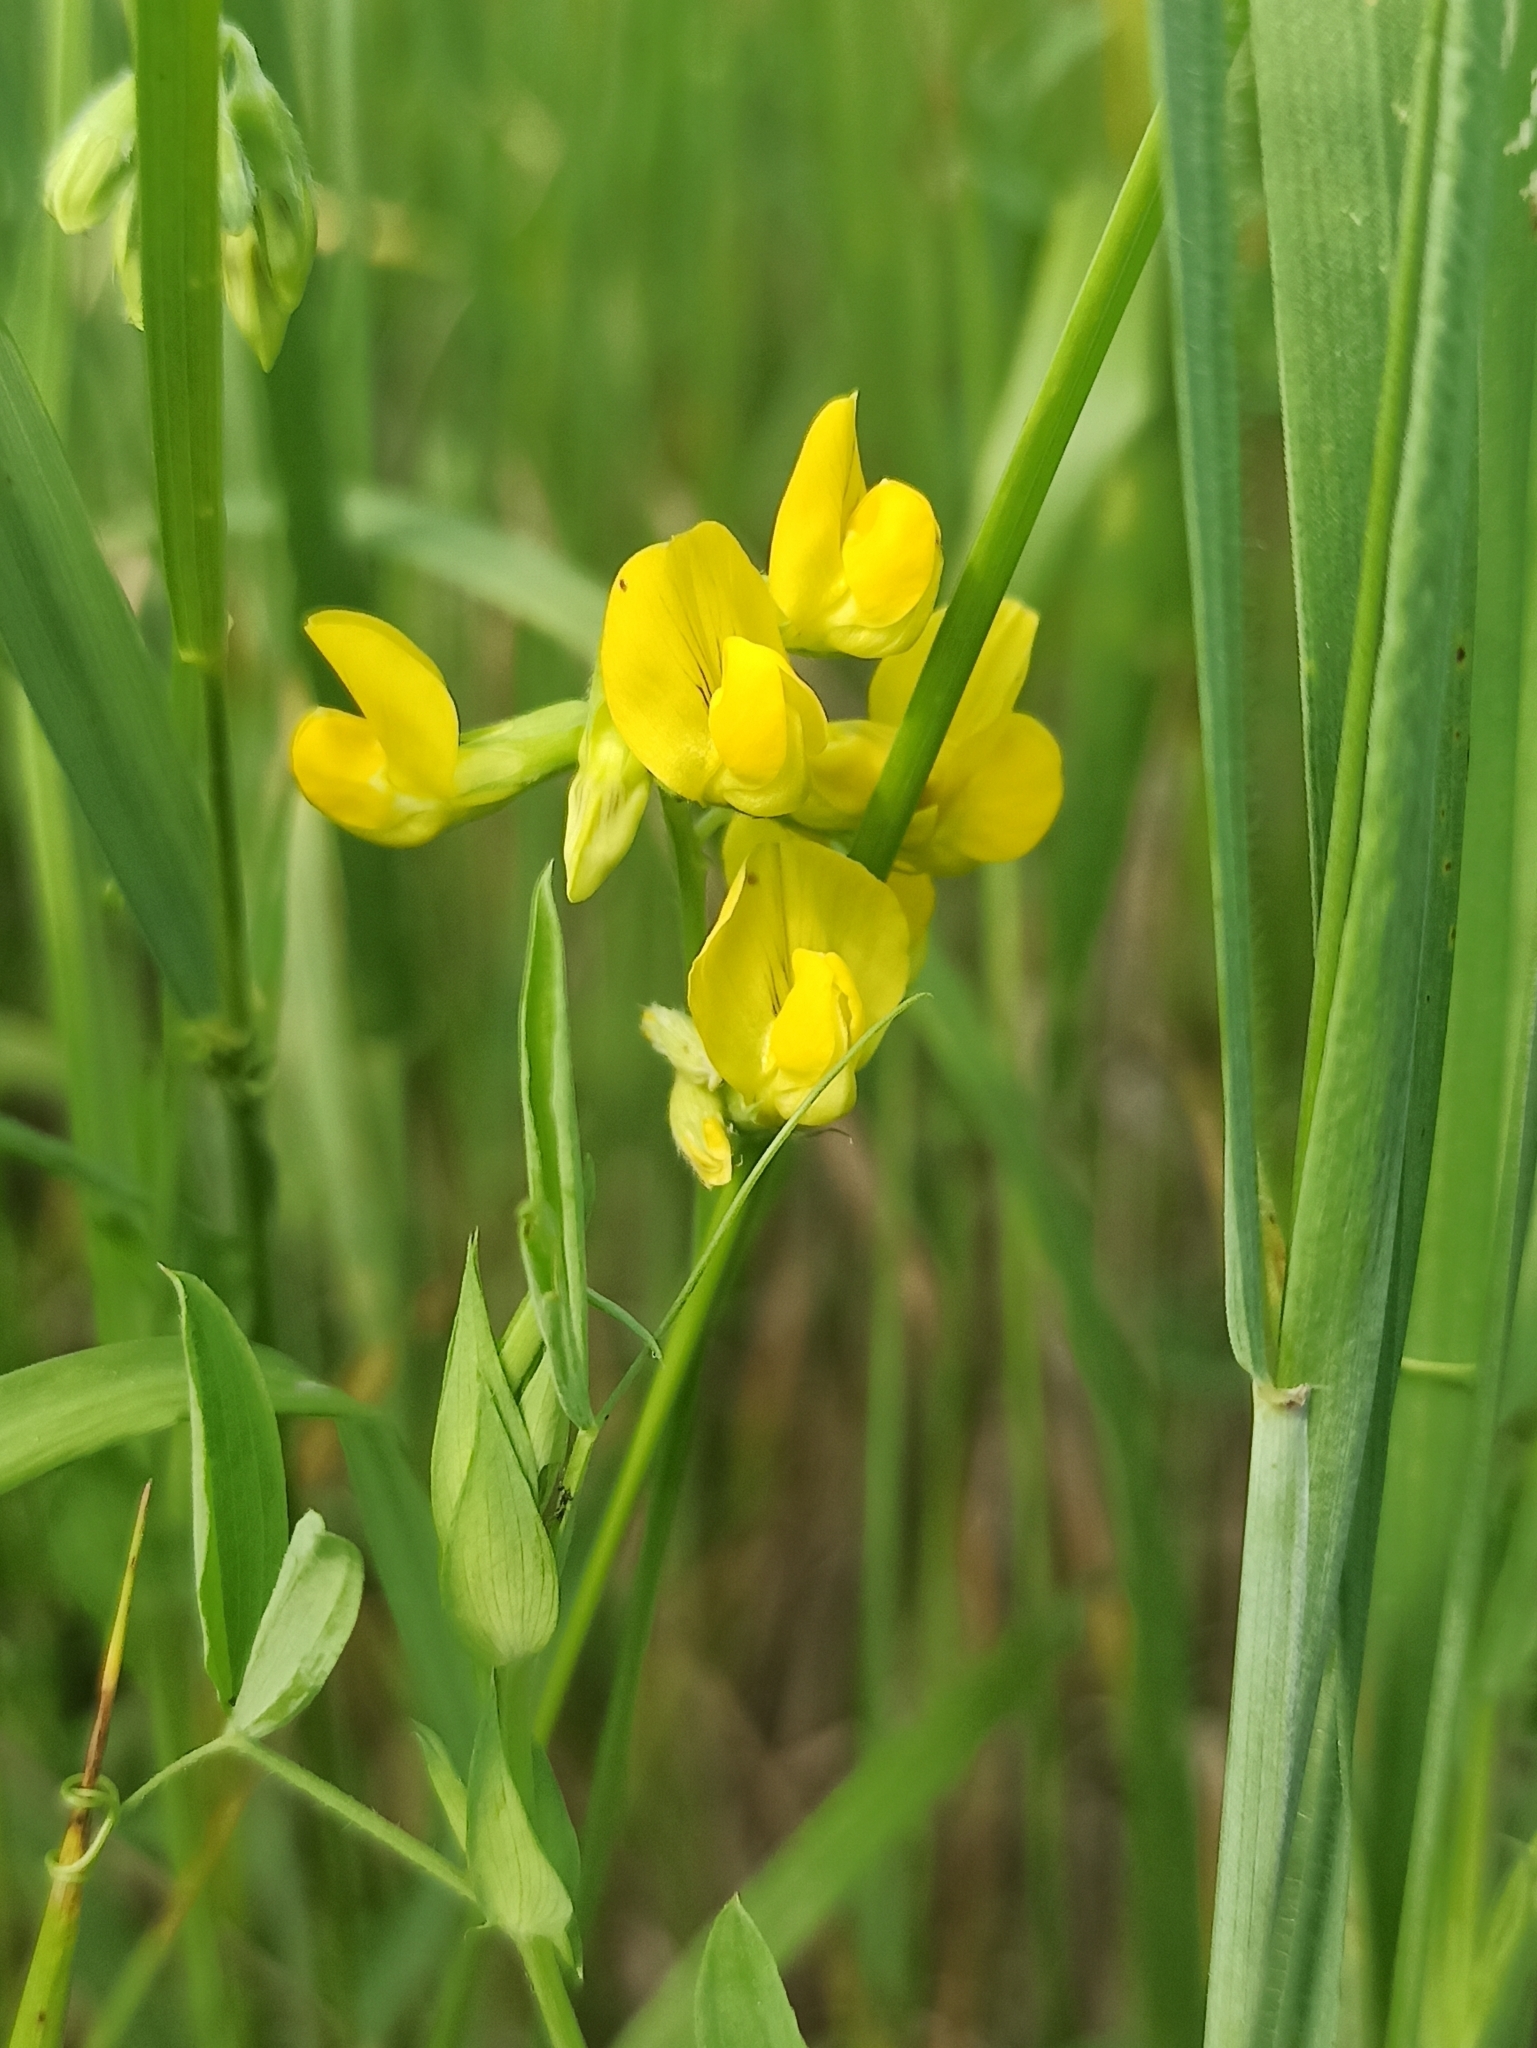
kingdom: Plantae
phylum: Tracheophyta
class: Magnoliopsida
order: Fabales
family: Fabaceae
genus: Lathyrus
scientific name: Lathyrus pratensis
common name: Meadow vetchling
